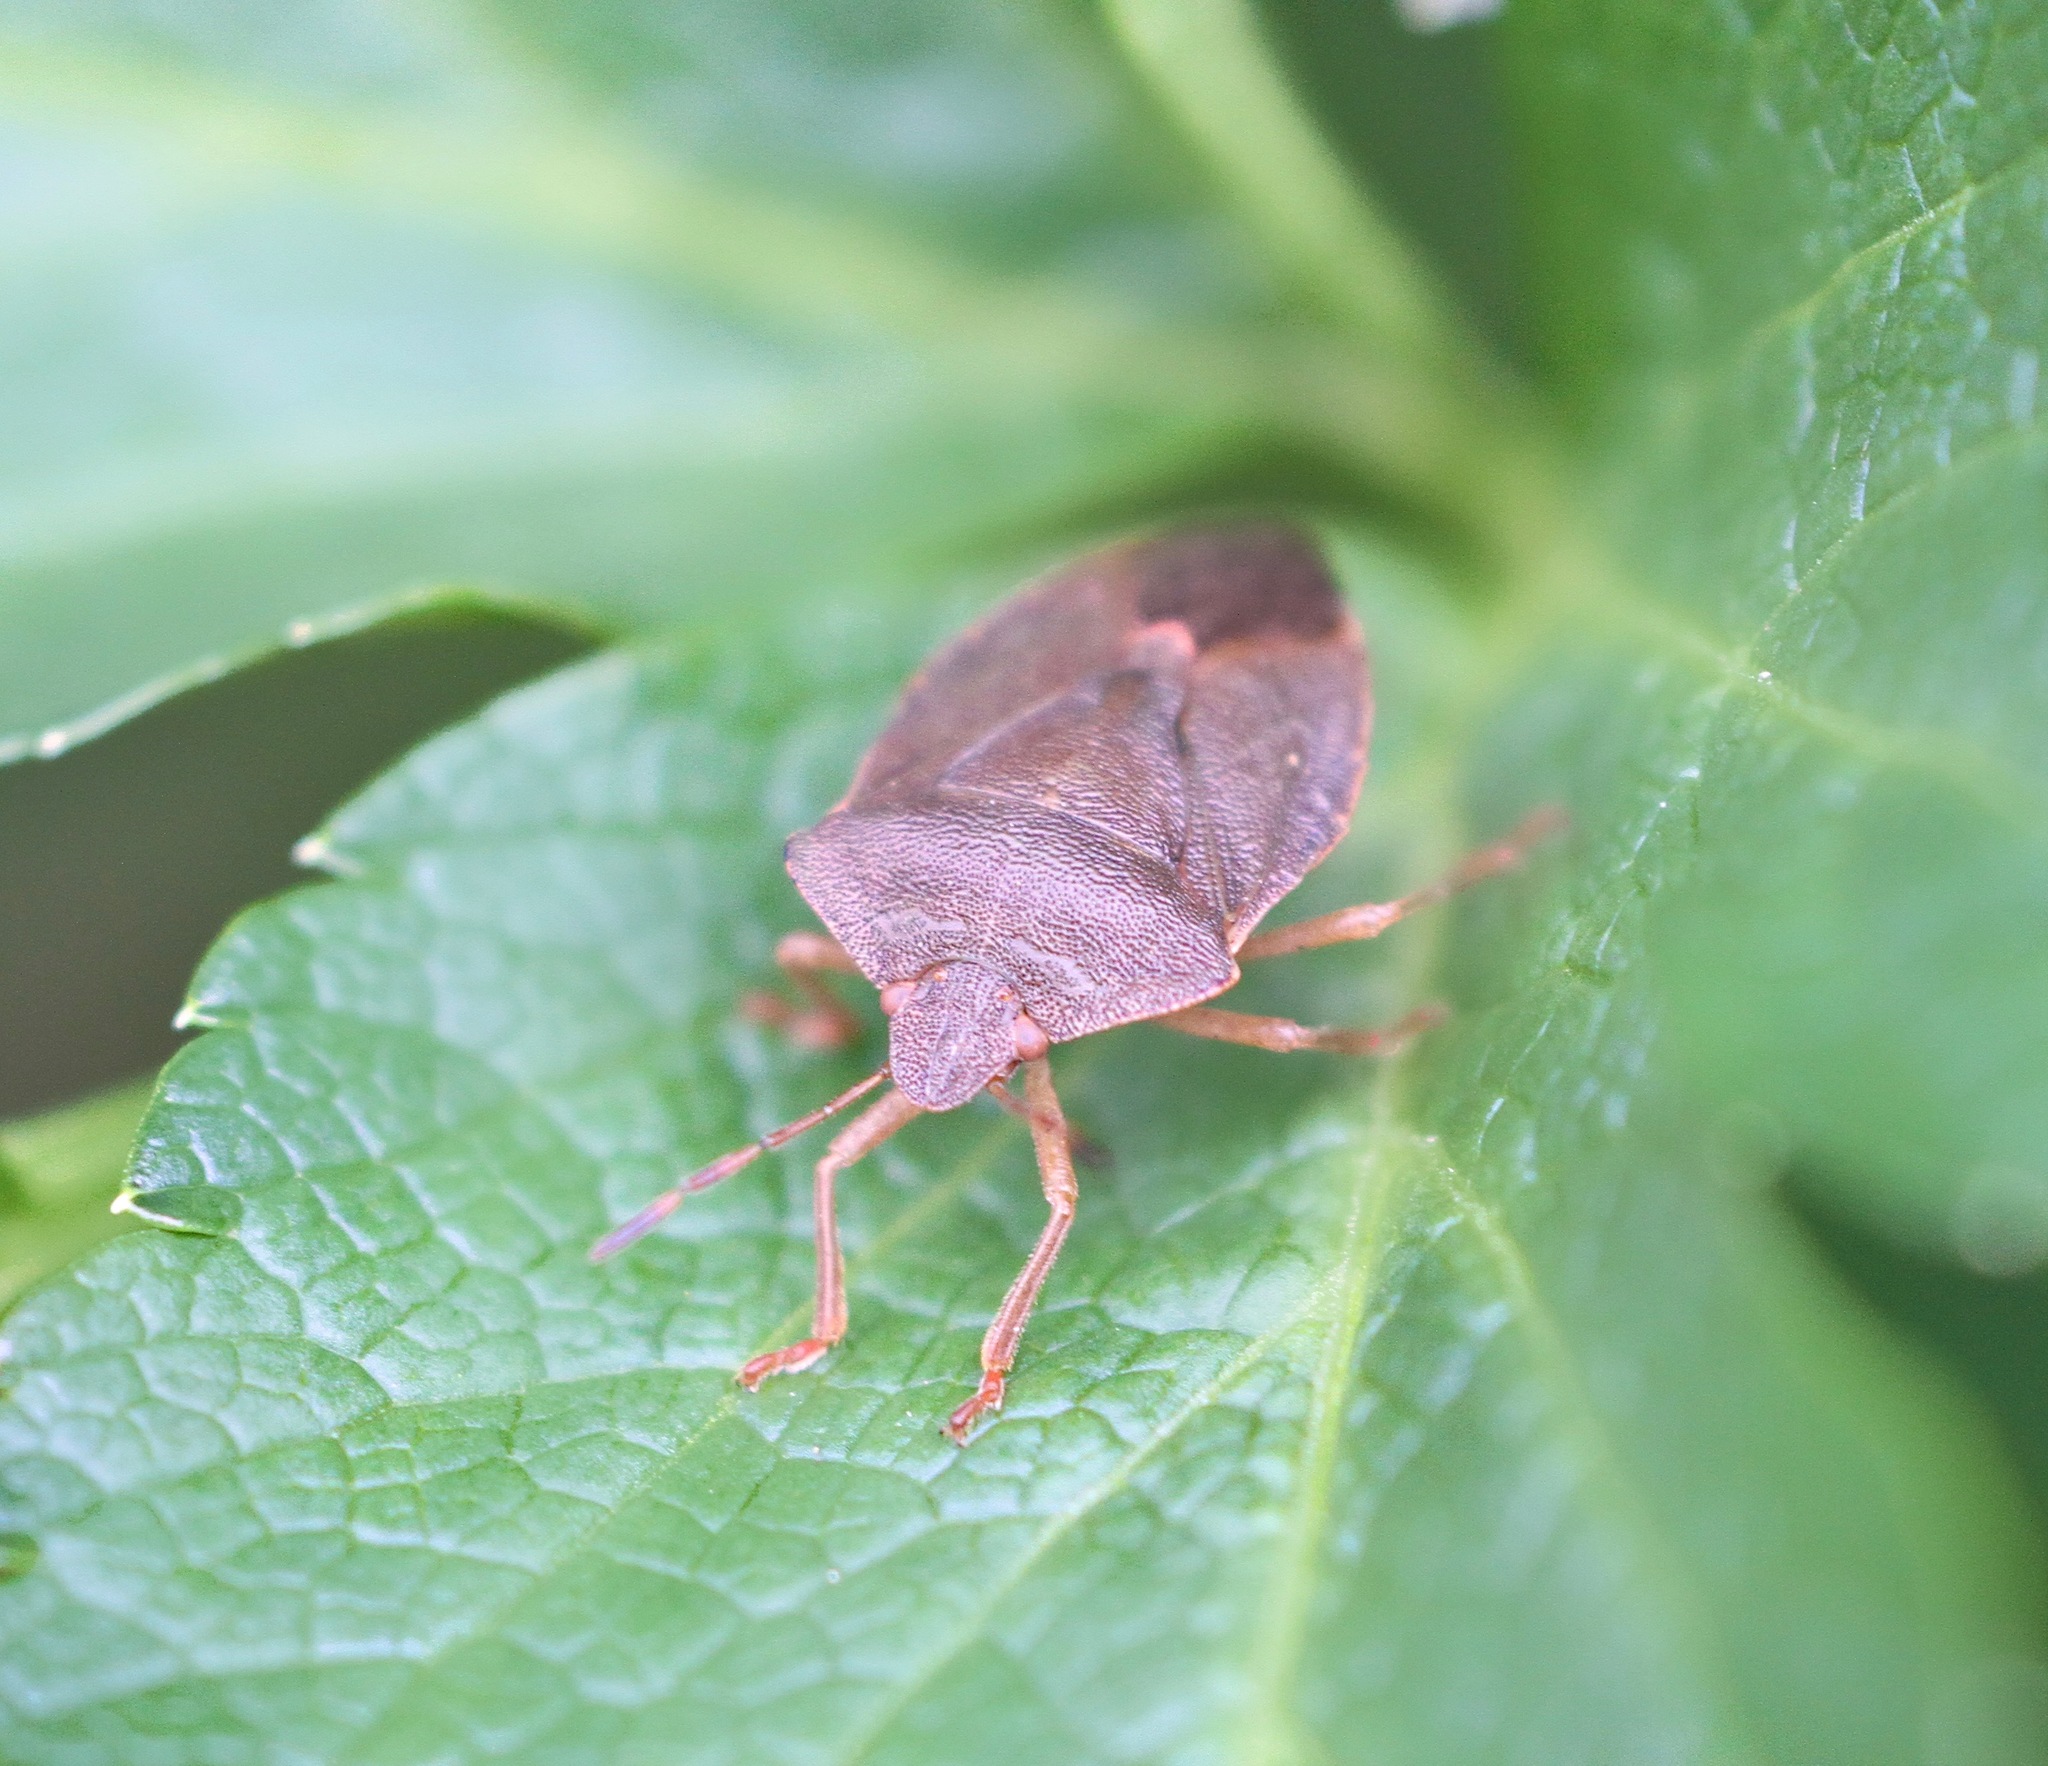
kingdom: Animalia
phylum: Arthropoda
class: Insecta
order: Hemiptera
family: Pentatomidae
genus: Palomena
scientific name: Palomena prasina
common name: Green shieldbug
